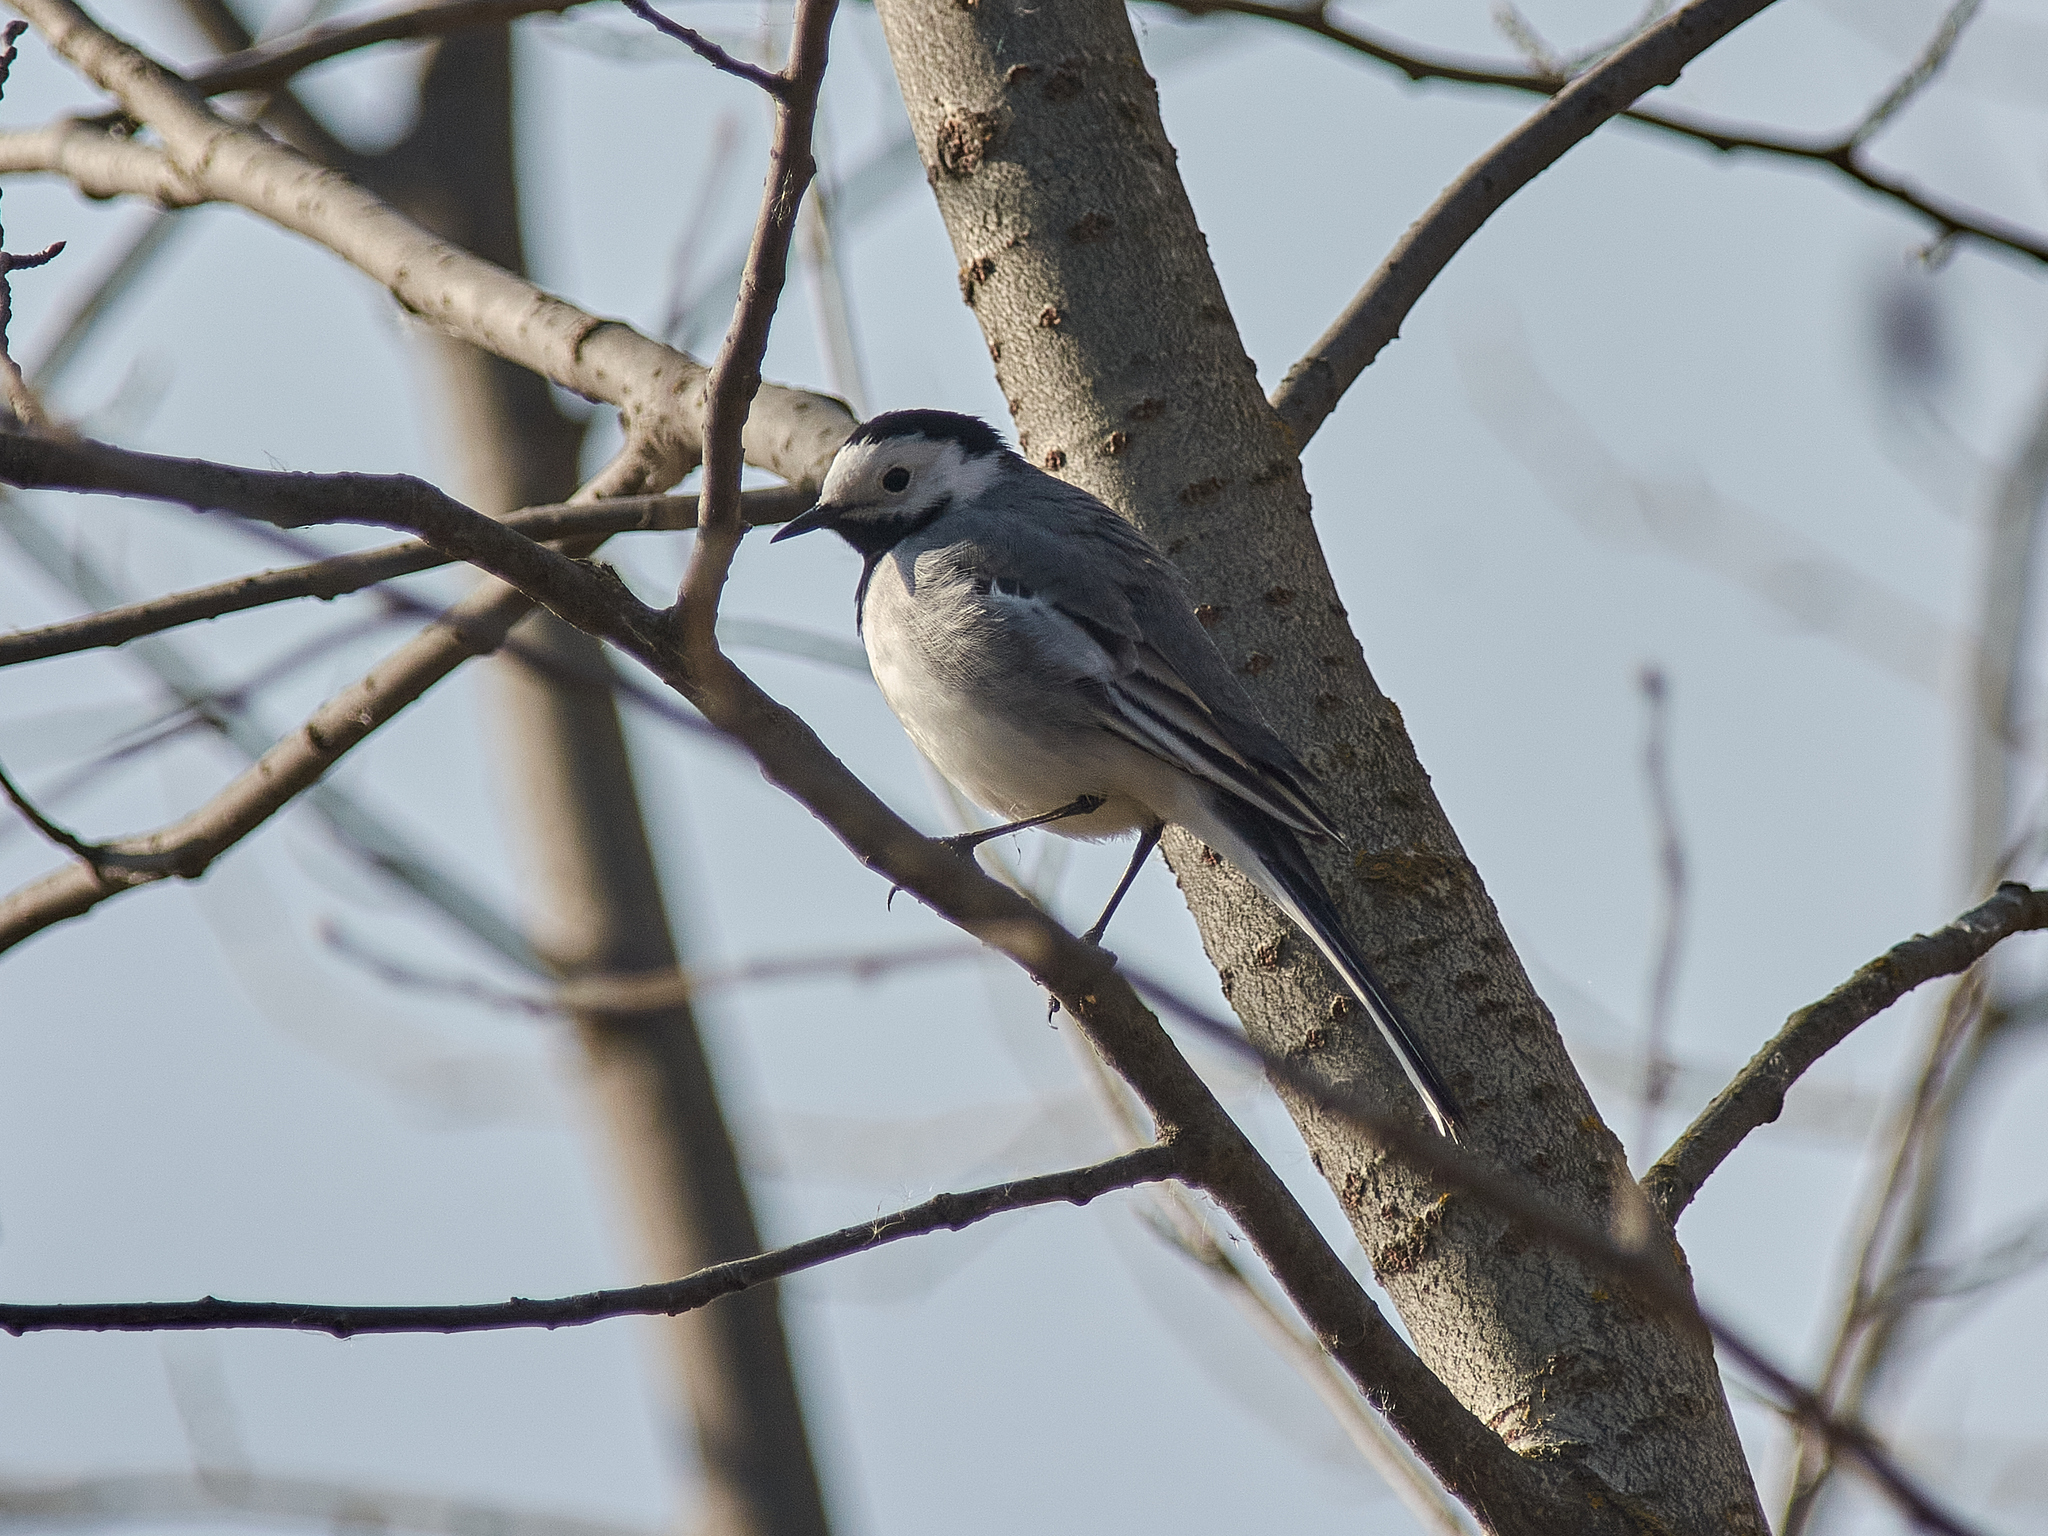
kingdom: Animalia
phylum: Chordata
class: Aves
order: Passeriformes
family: Motacillidae
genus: Motacilla
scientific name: Motacilla alba
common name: White wagtail
